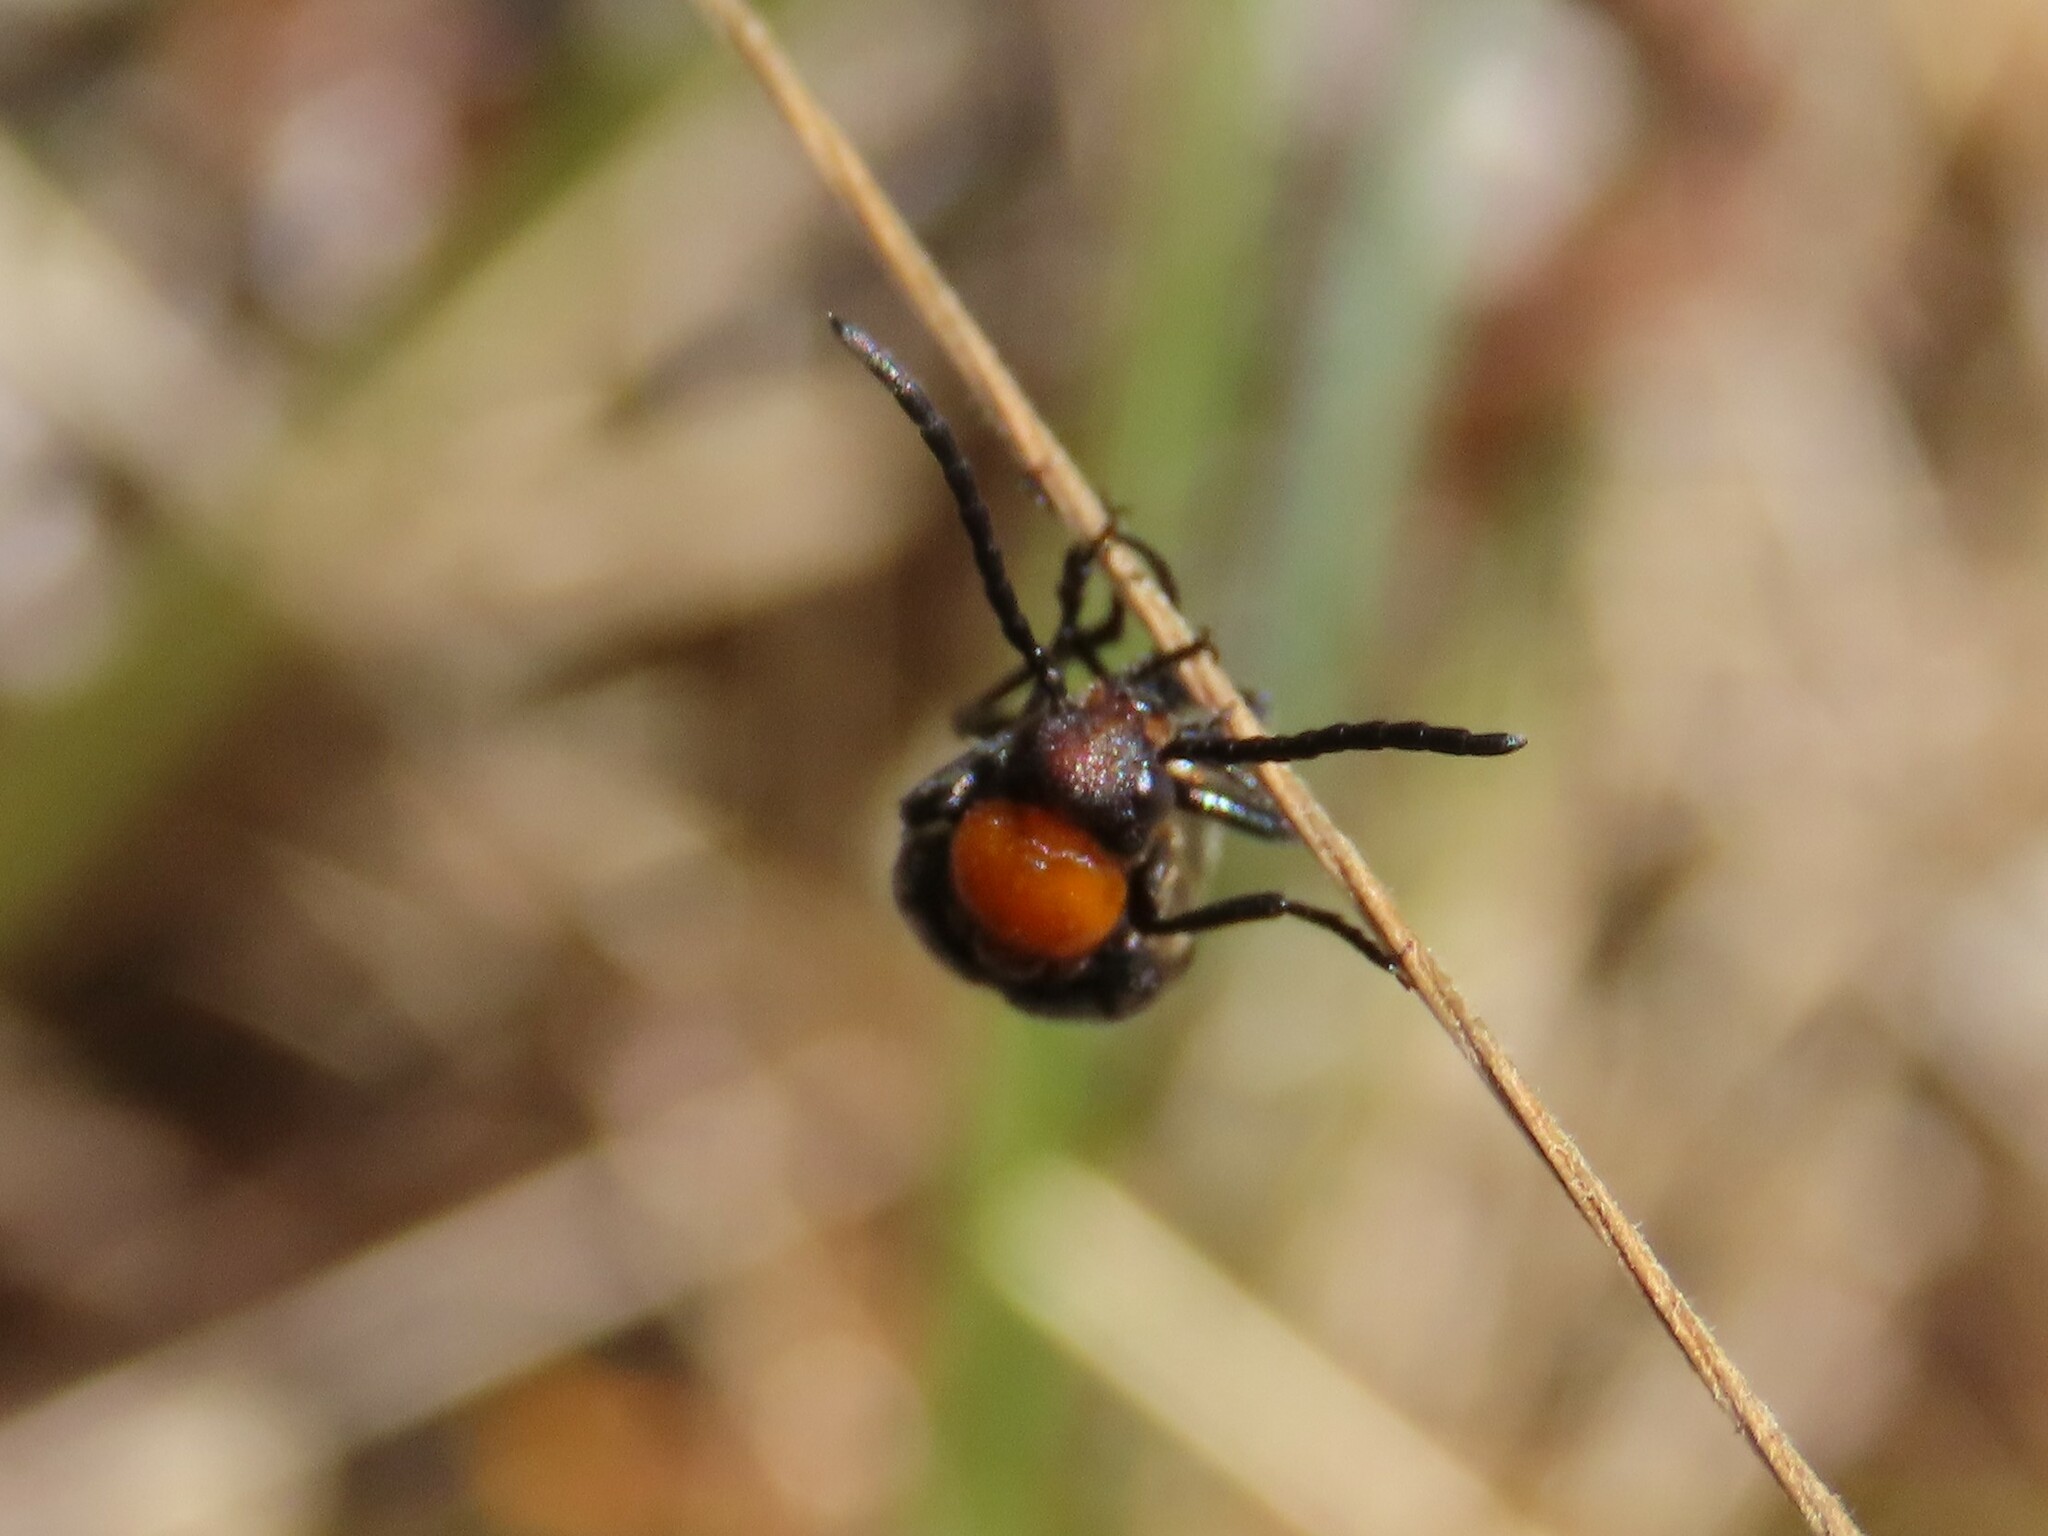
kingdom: Animalia
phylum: Arthropoda
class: Insecta
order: Coleoptera
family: Meloidae
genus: Nemognatha
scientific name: Nemognatha nemorensis
